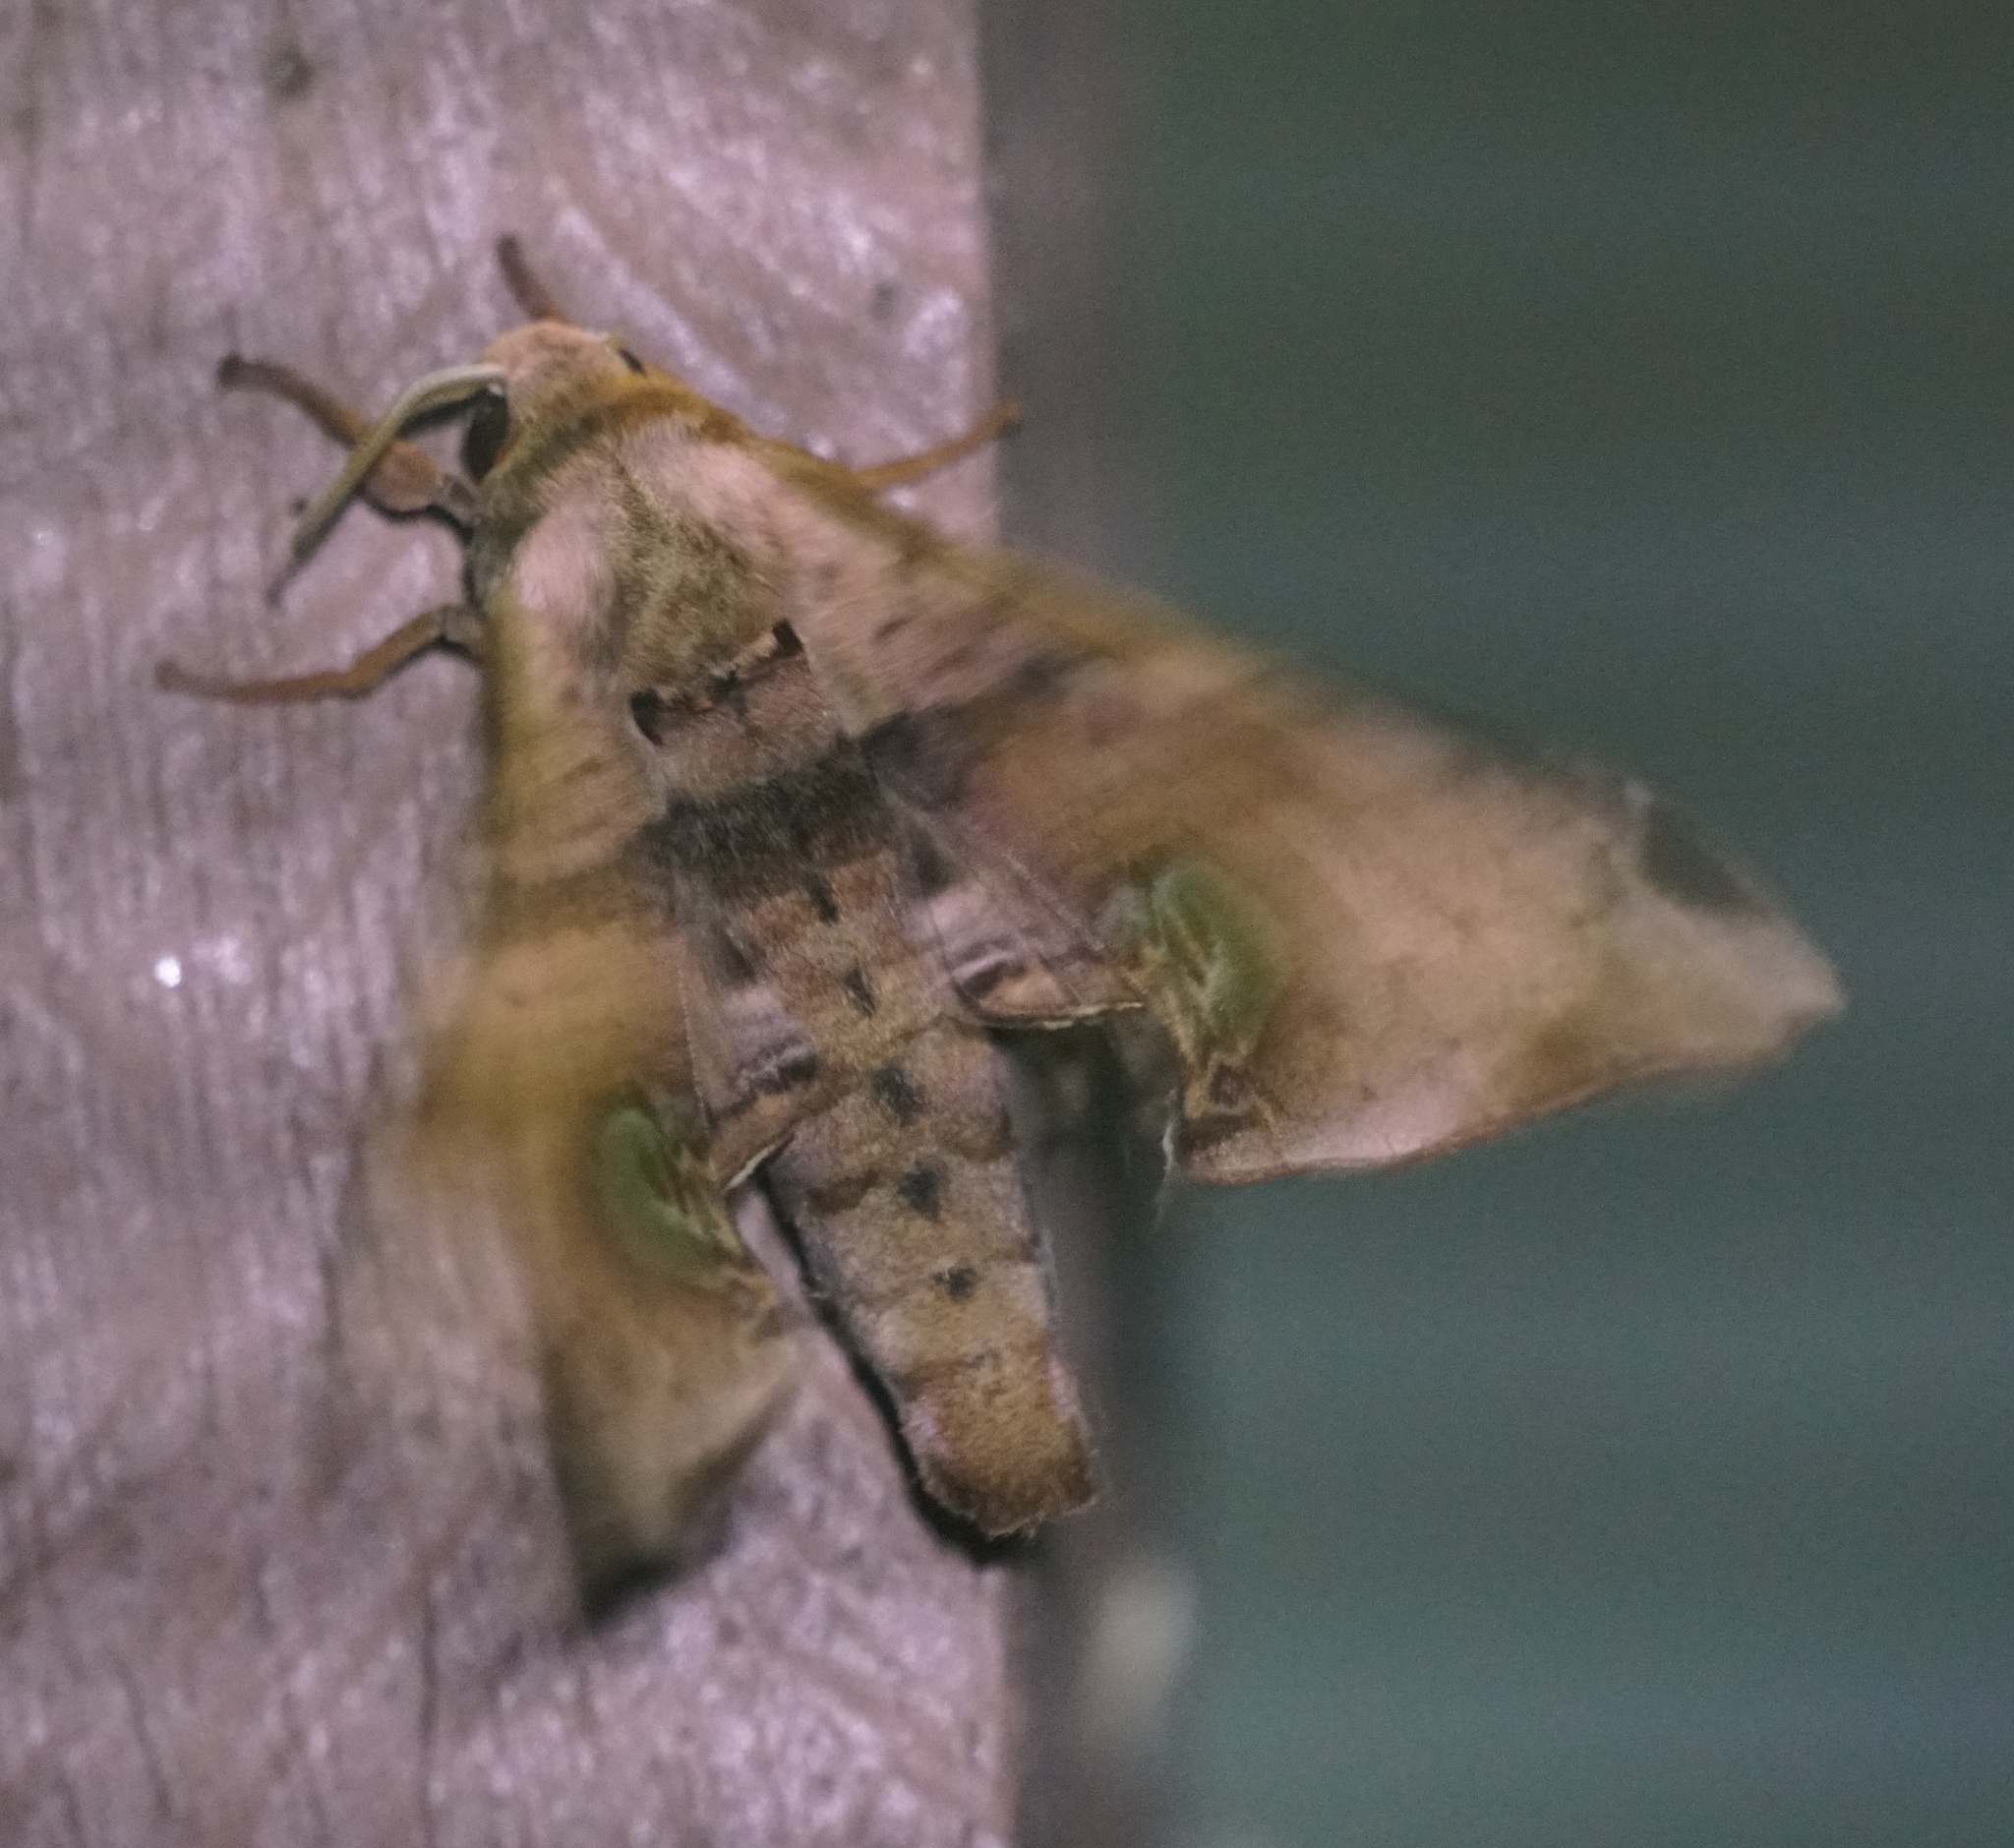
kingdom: Animalia
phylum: Arthropoda
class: Insecta
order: Lepidoptera
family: Sphingidae
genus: Daphnusa
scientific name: Daphnusa ocellaris
